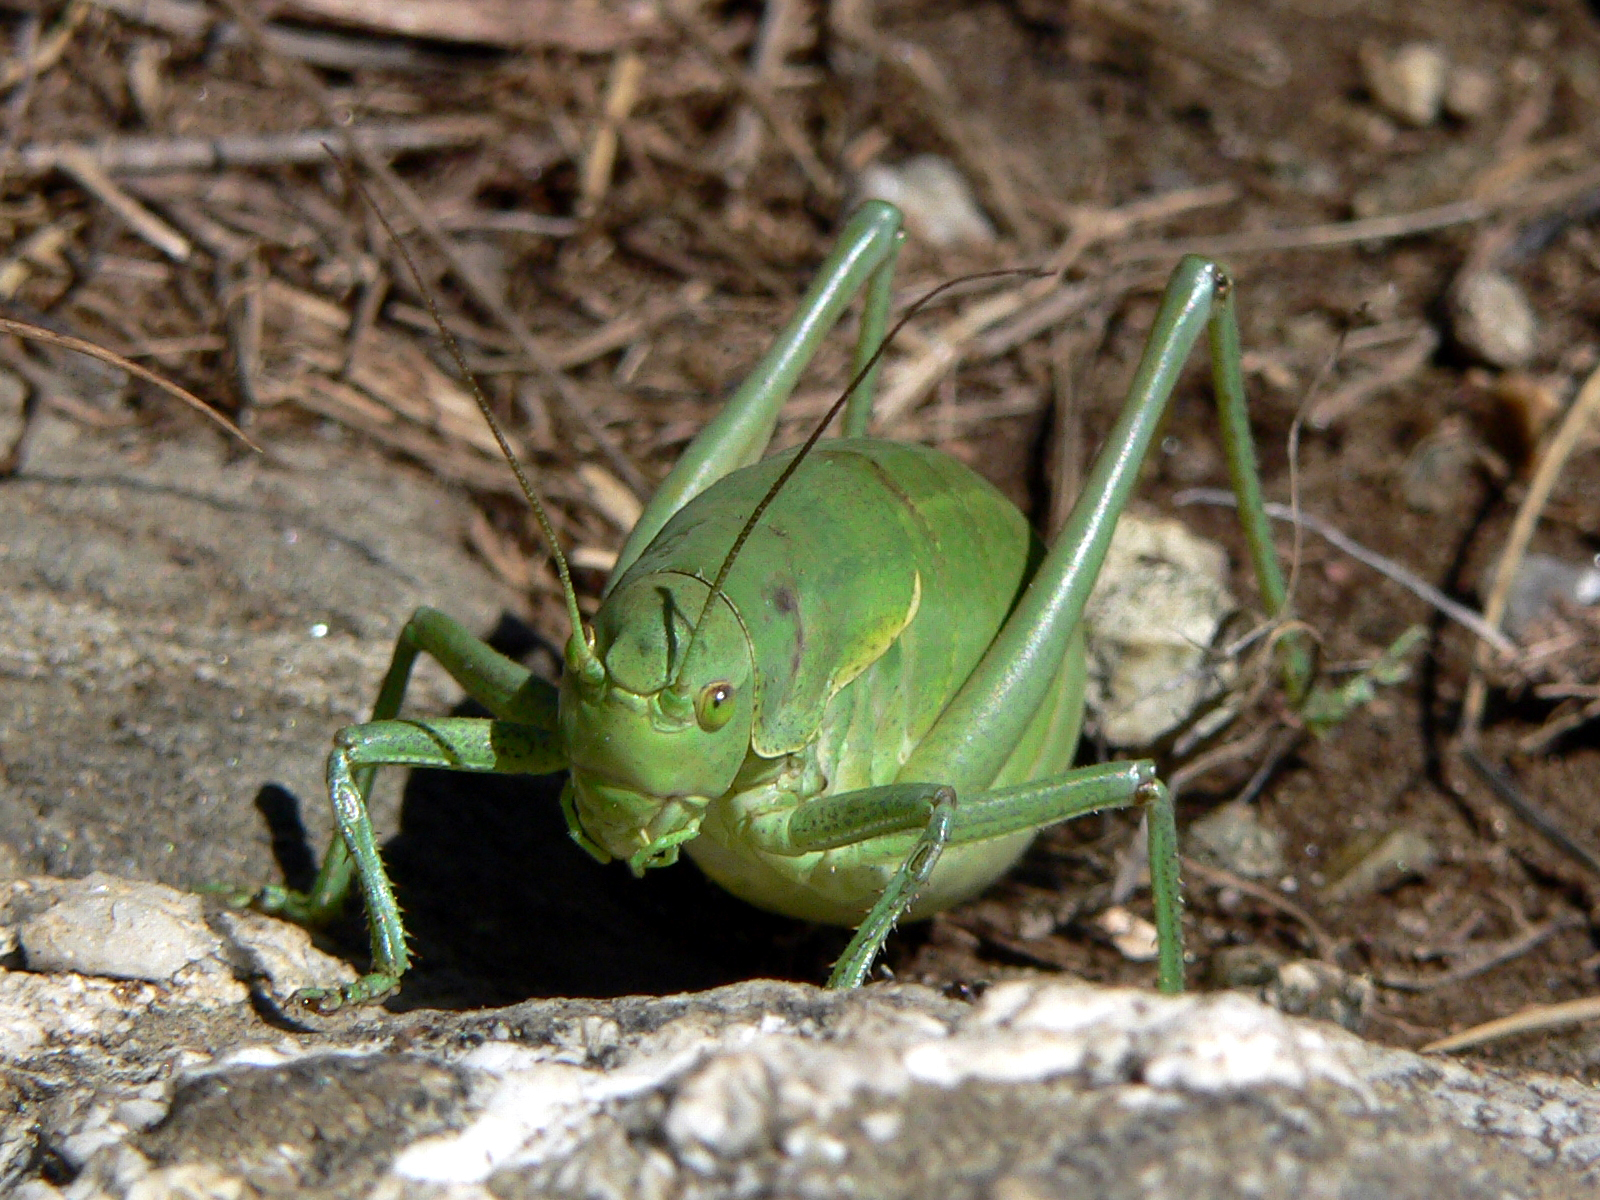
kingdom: Animalia
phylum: Arthropoda
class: Insecta
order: Orthoptera
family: Tettigoniidae
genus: Polysarcus
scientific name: Polysarcus denticauda
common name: Large saw-tailed bush-cricket
